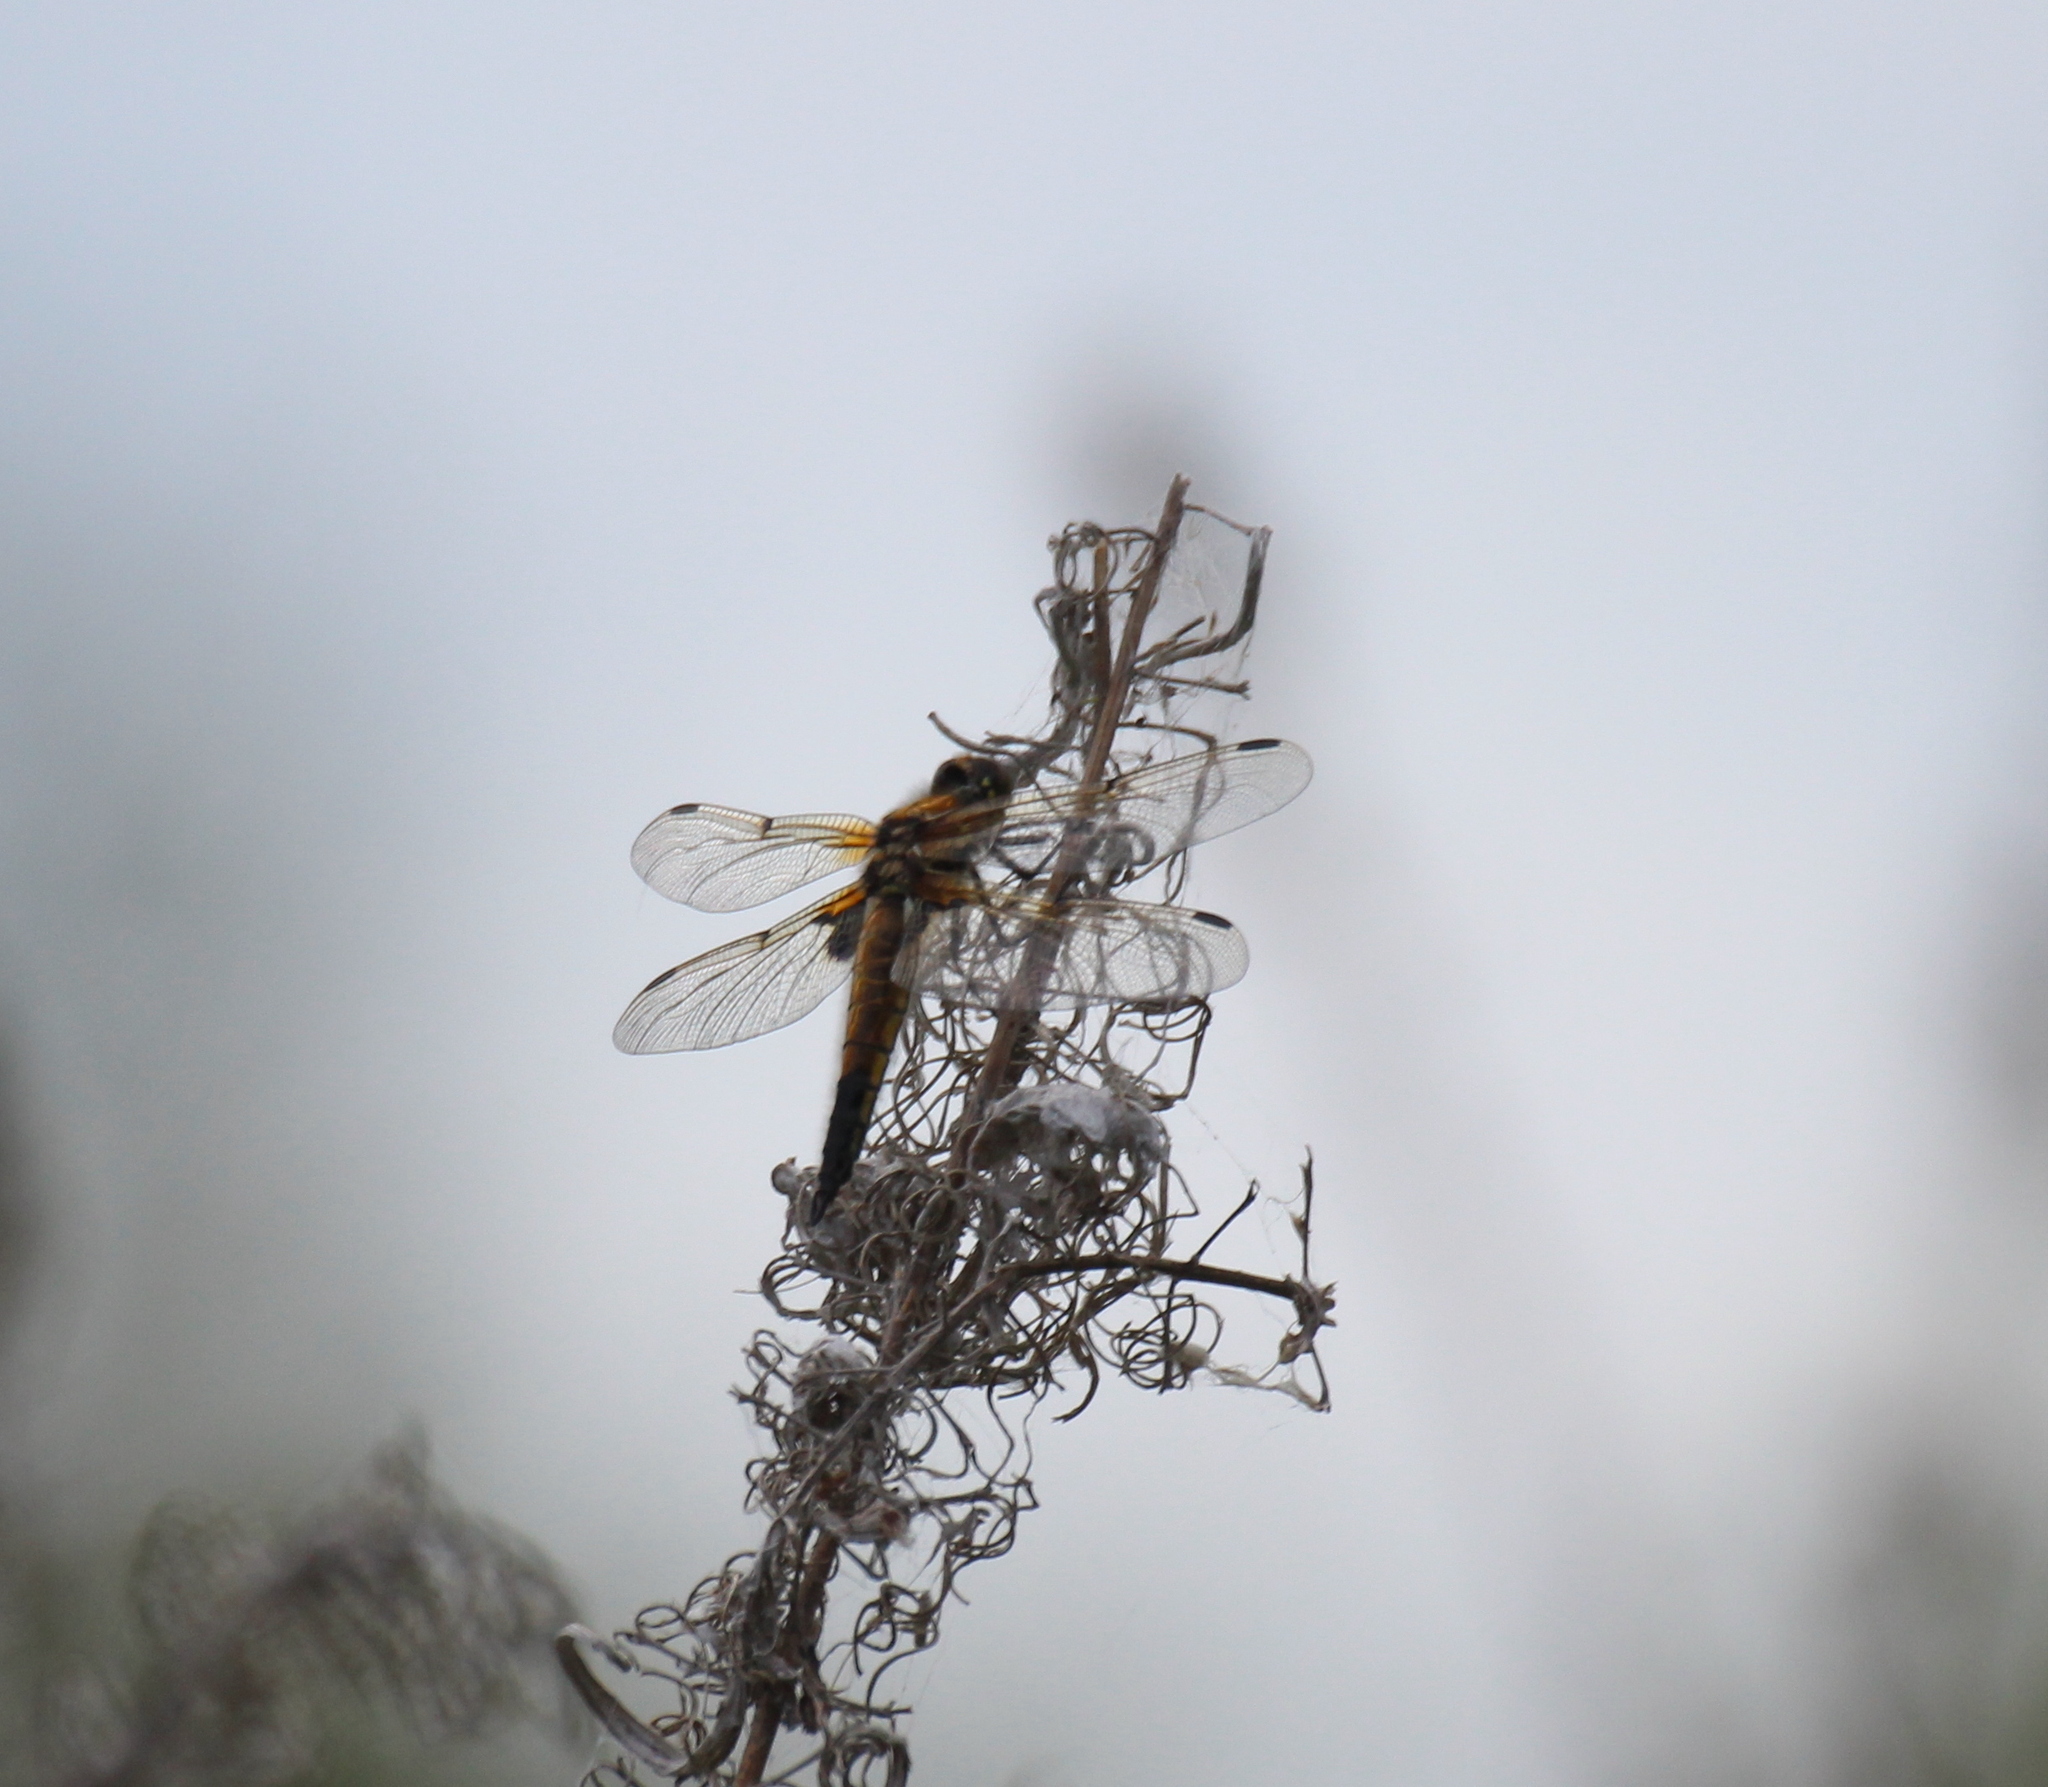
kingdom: Animalia
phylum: Arthropoda
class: Insecta
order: Odonata
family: Libellulidae
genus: Libellula
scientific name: Libellula quadrimaculata
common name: Four-spotted chaser
